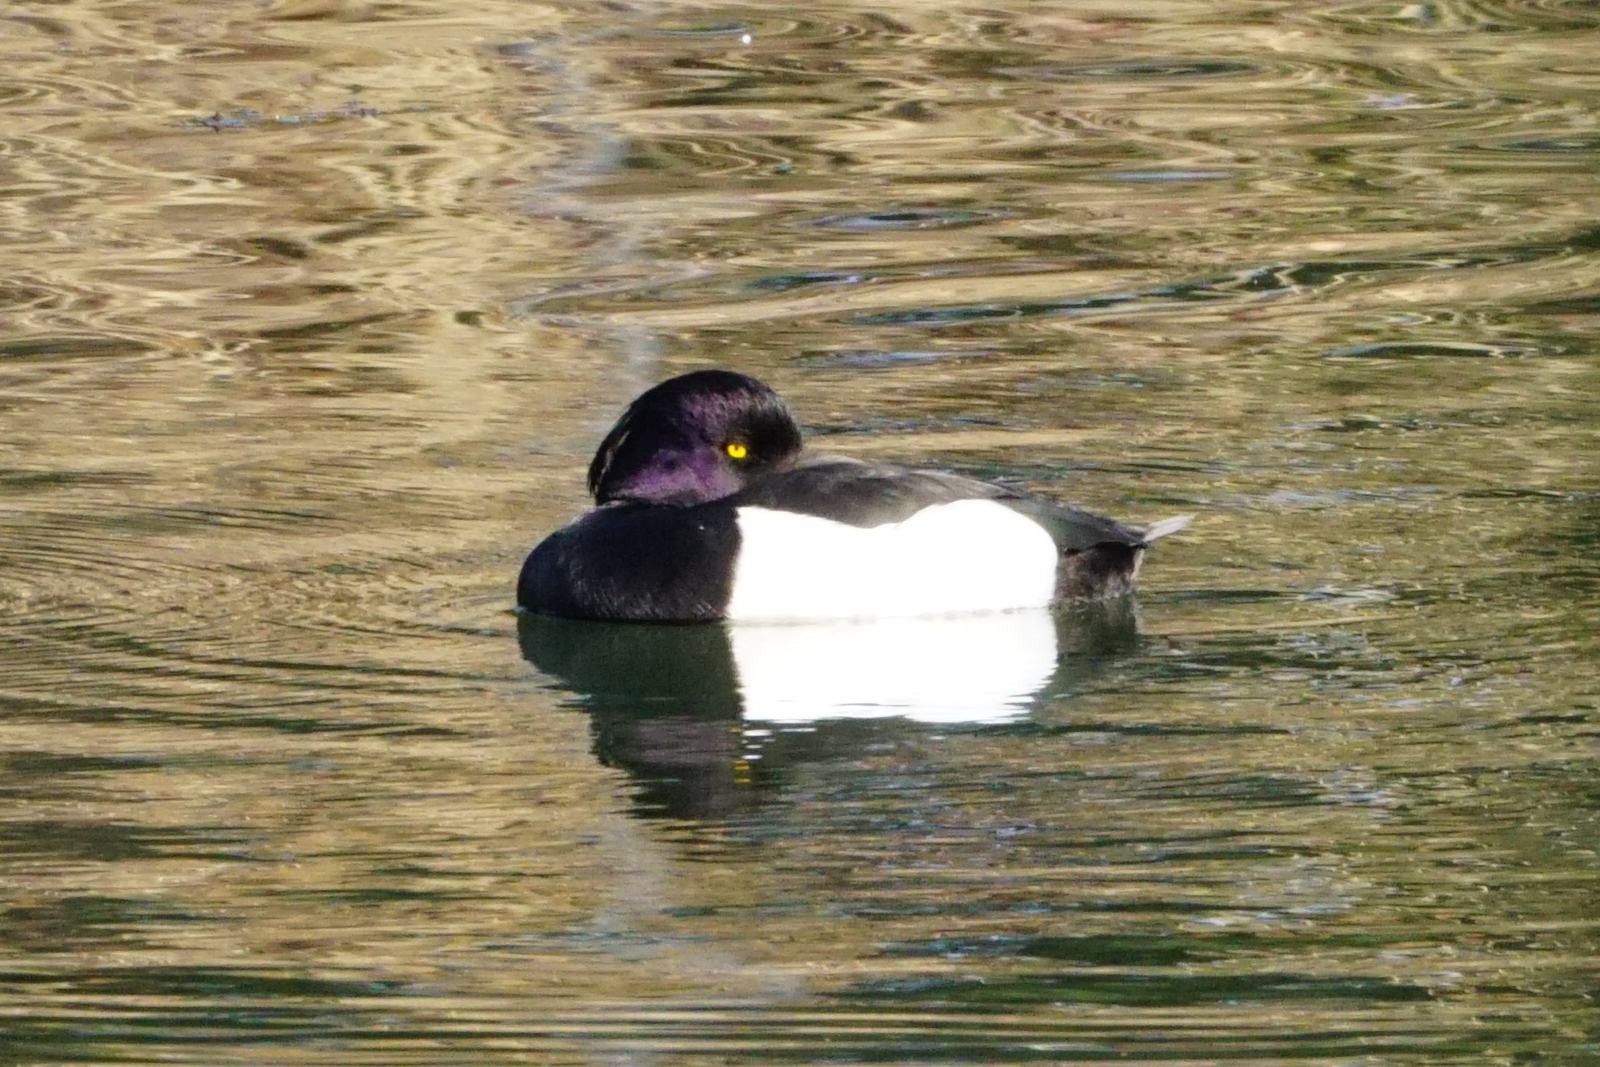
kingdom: Animalia
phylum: Chordata
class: Aves
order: Anseriformes
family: Anatidae
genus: Aythya
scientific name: Aythya fuligula
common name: Tufted duck
